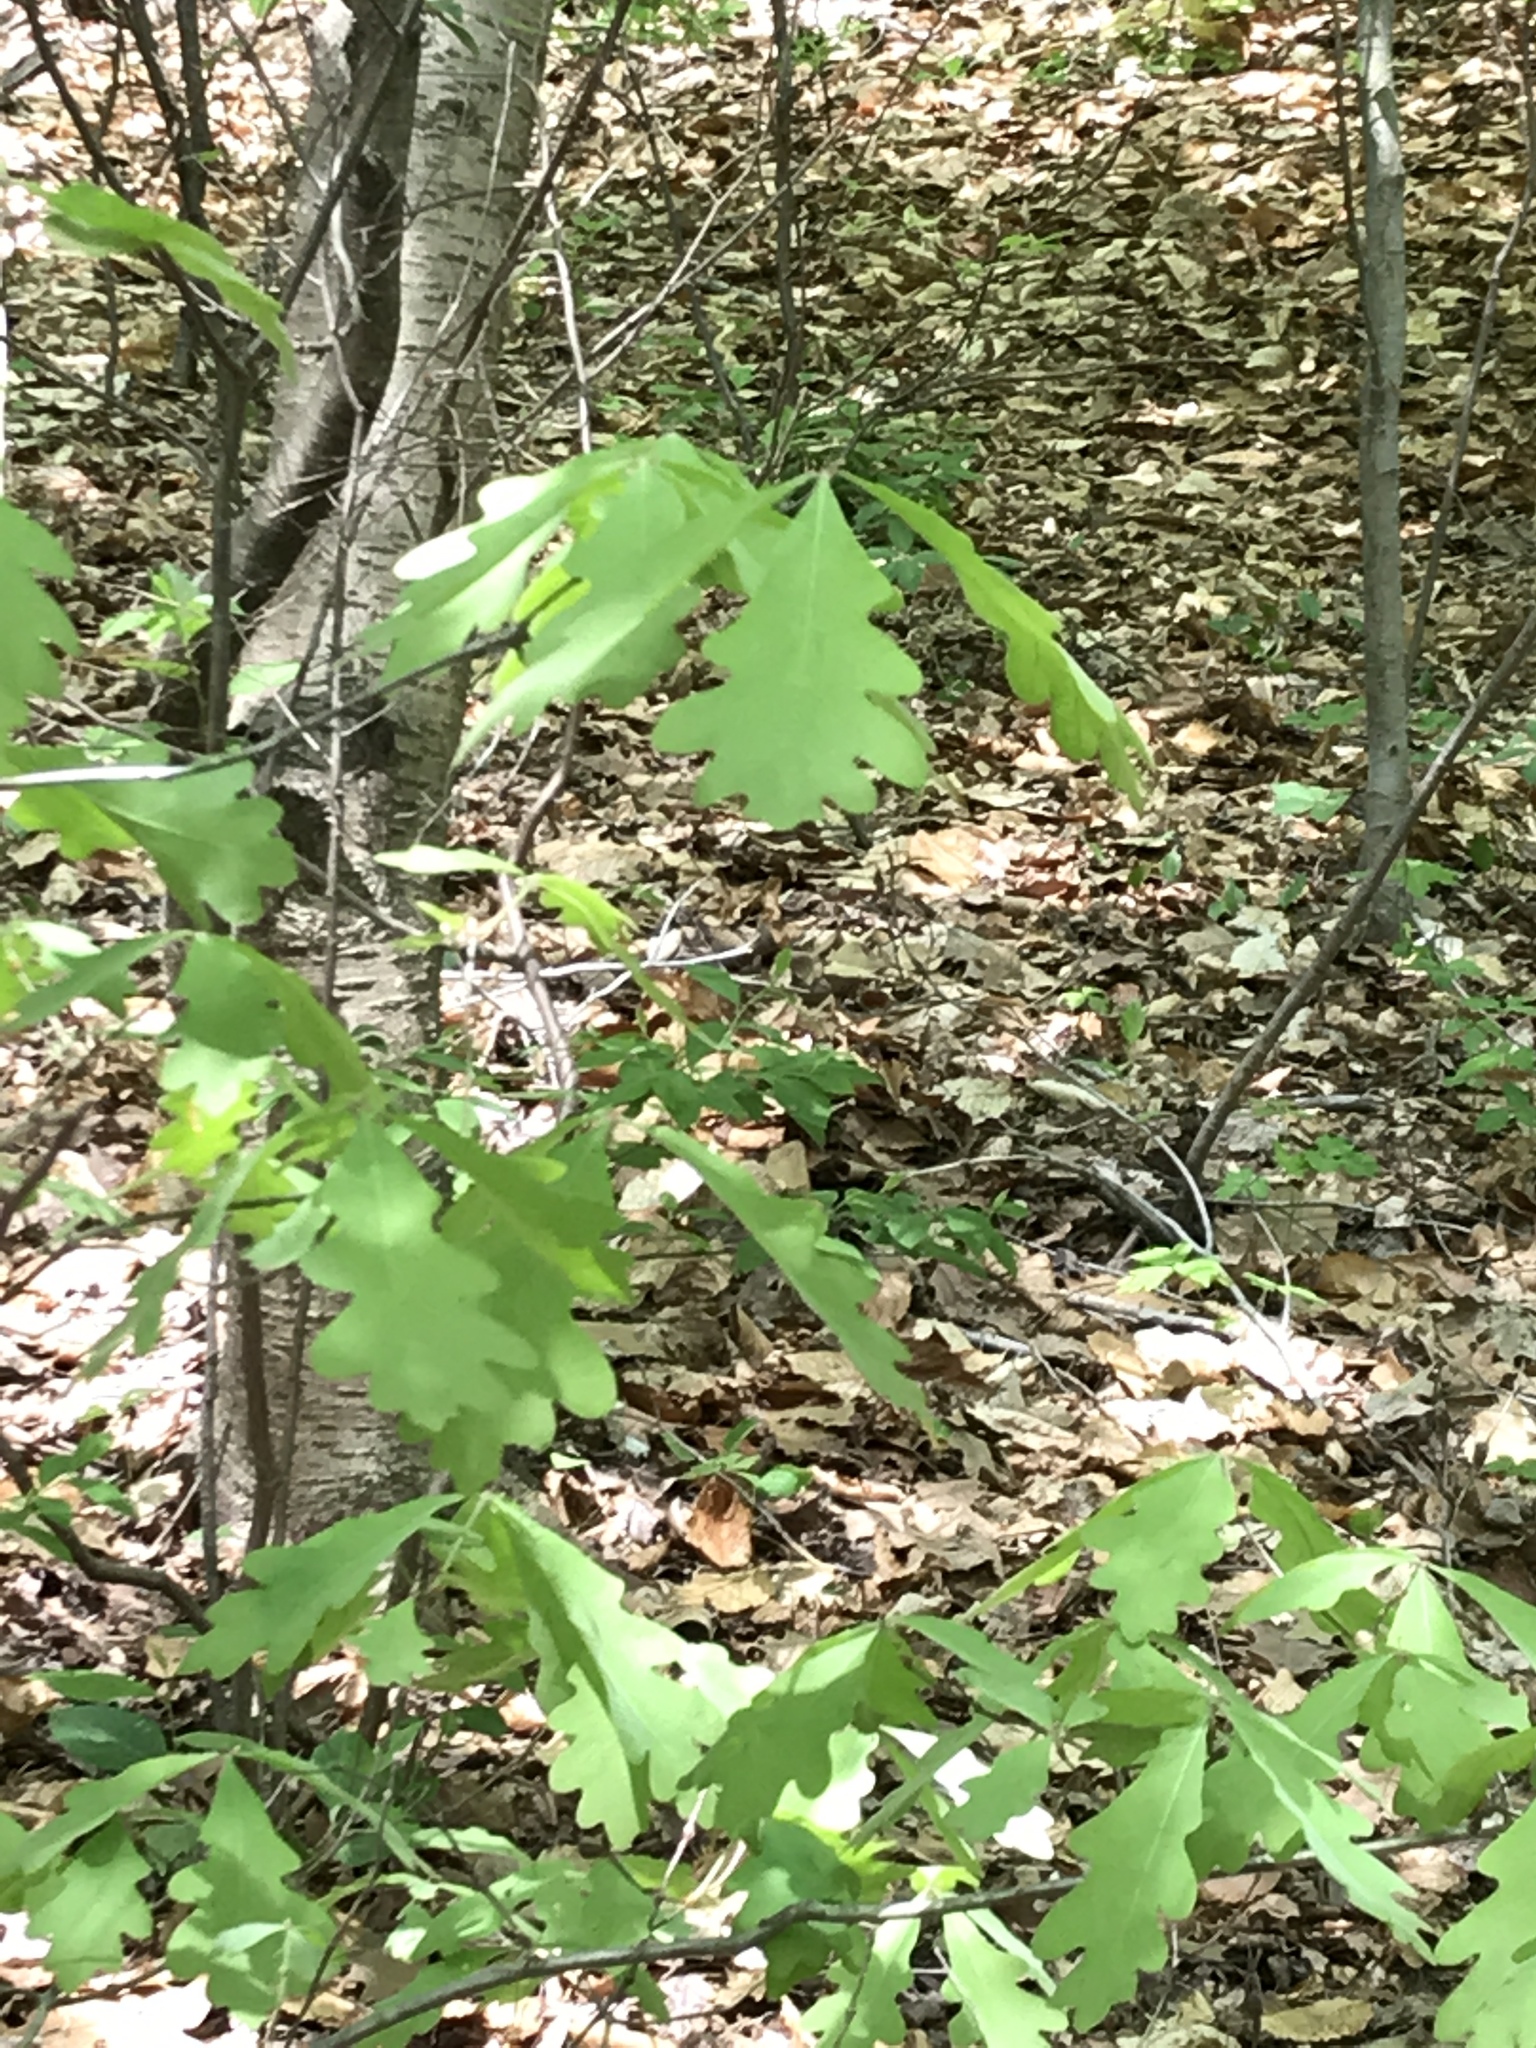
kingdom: Plantae
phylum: Tracheophyta
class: Magnoliopsida
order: Fagales
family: Fagaceae
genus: Quercus
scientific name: Quercus alba
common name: White oak
